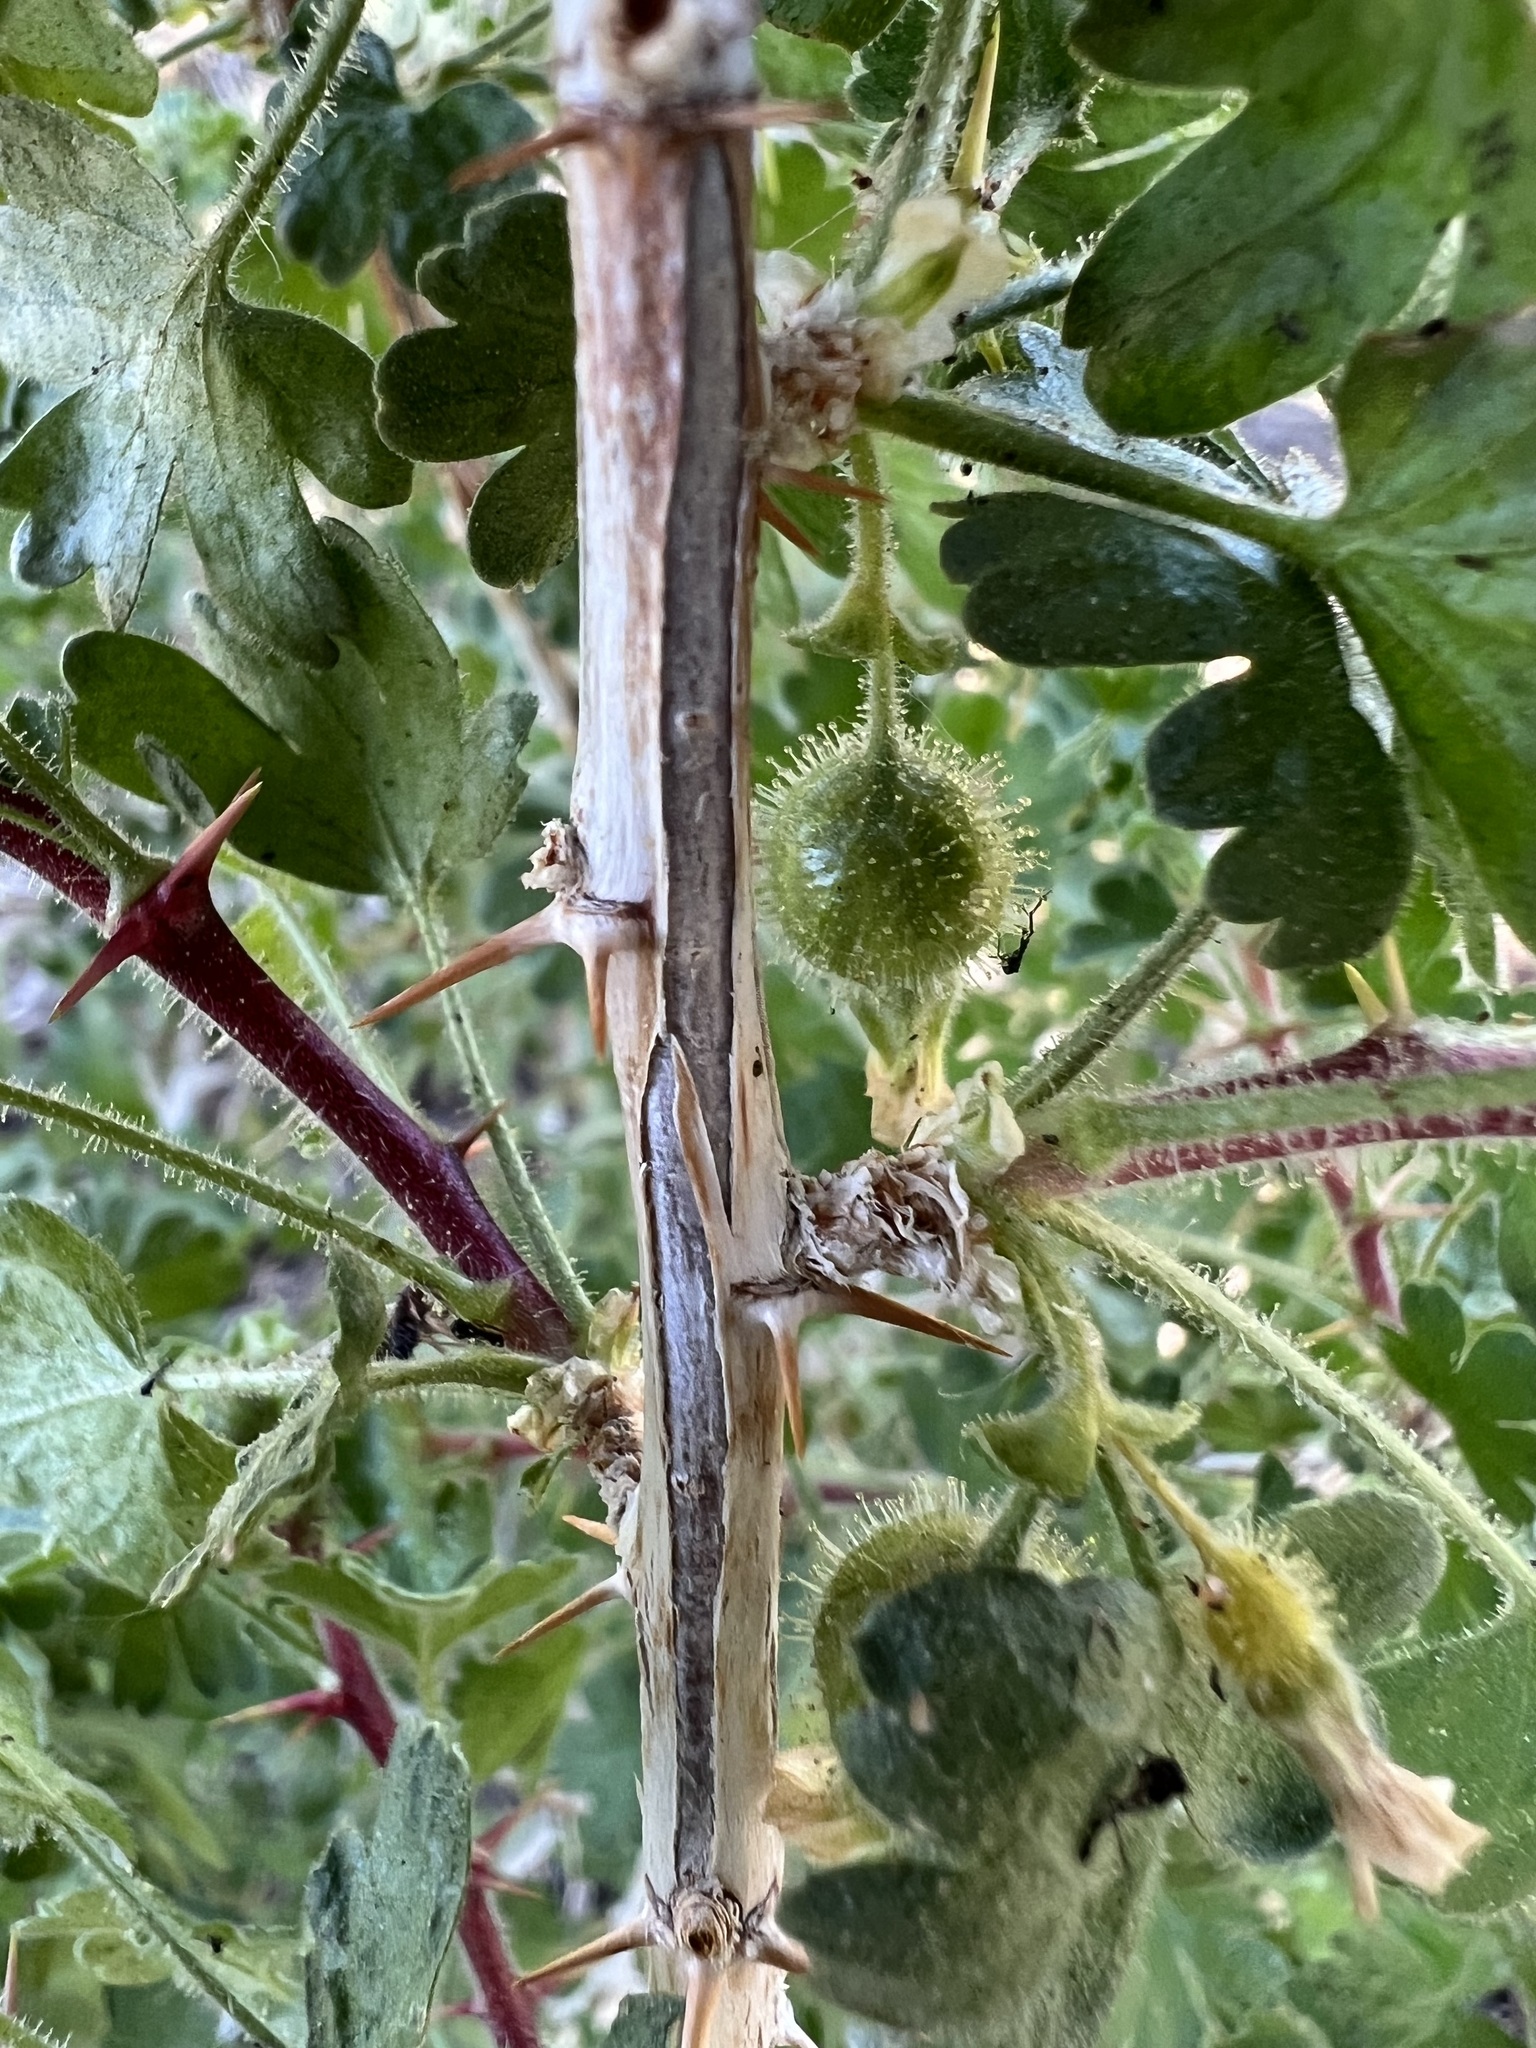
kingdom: Plantae
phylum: Tracheophyta
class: Magnoliopsida
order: Saxifragales
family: Grossulariaceae
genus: Ribes
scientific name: Ribes velutinum
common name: Desert gooseberry
